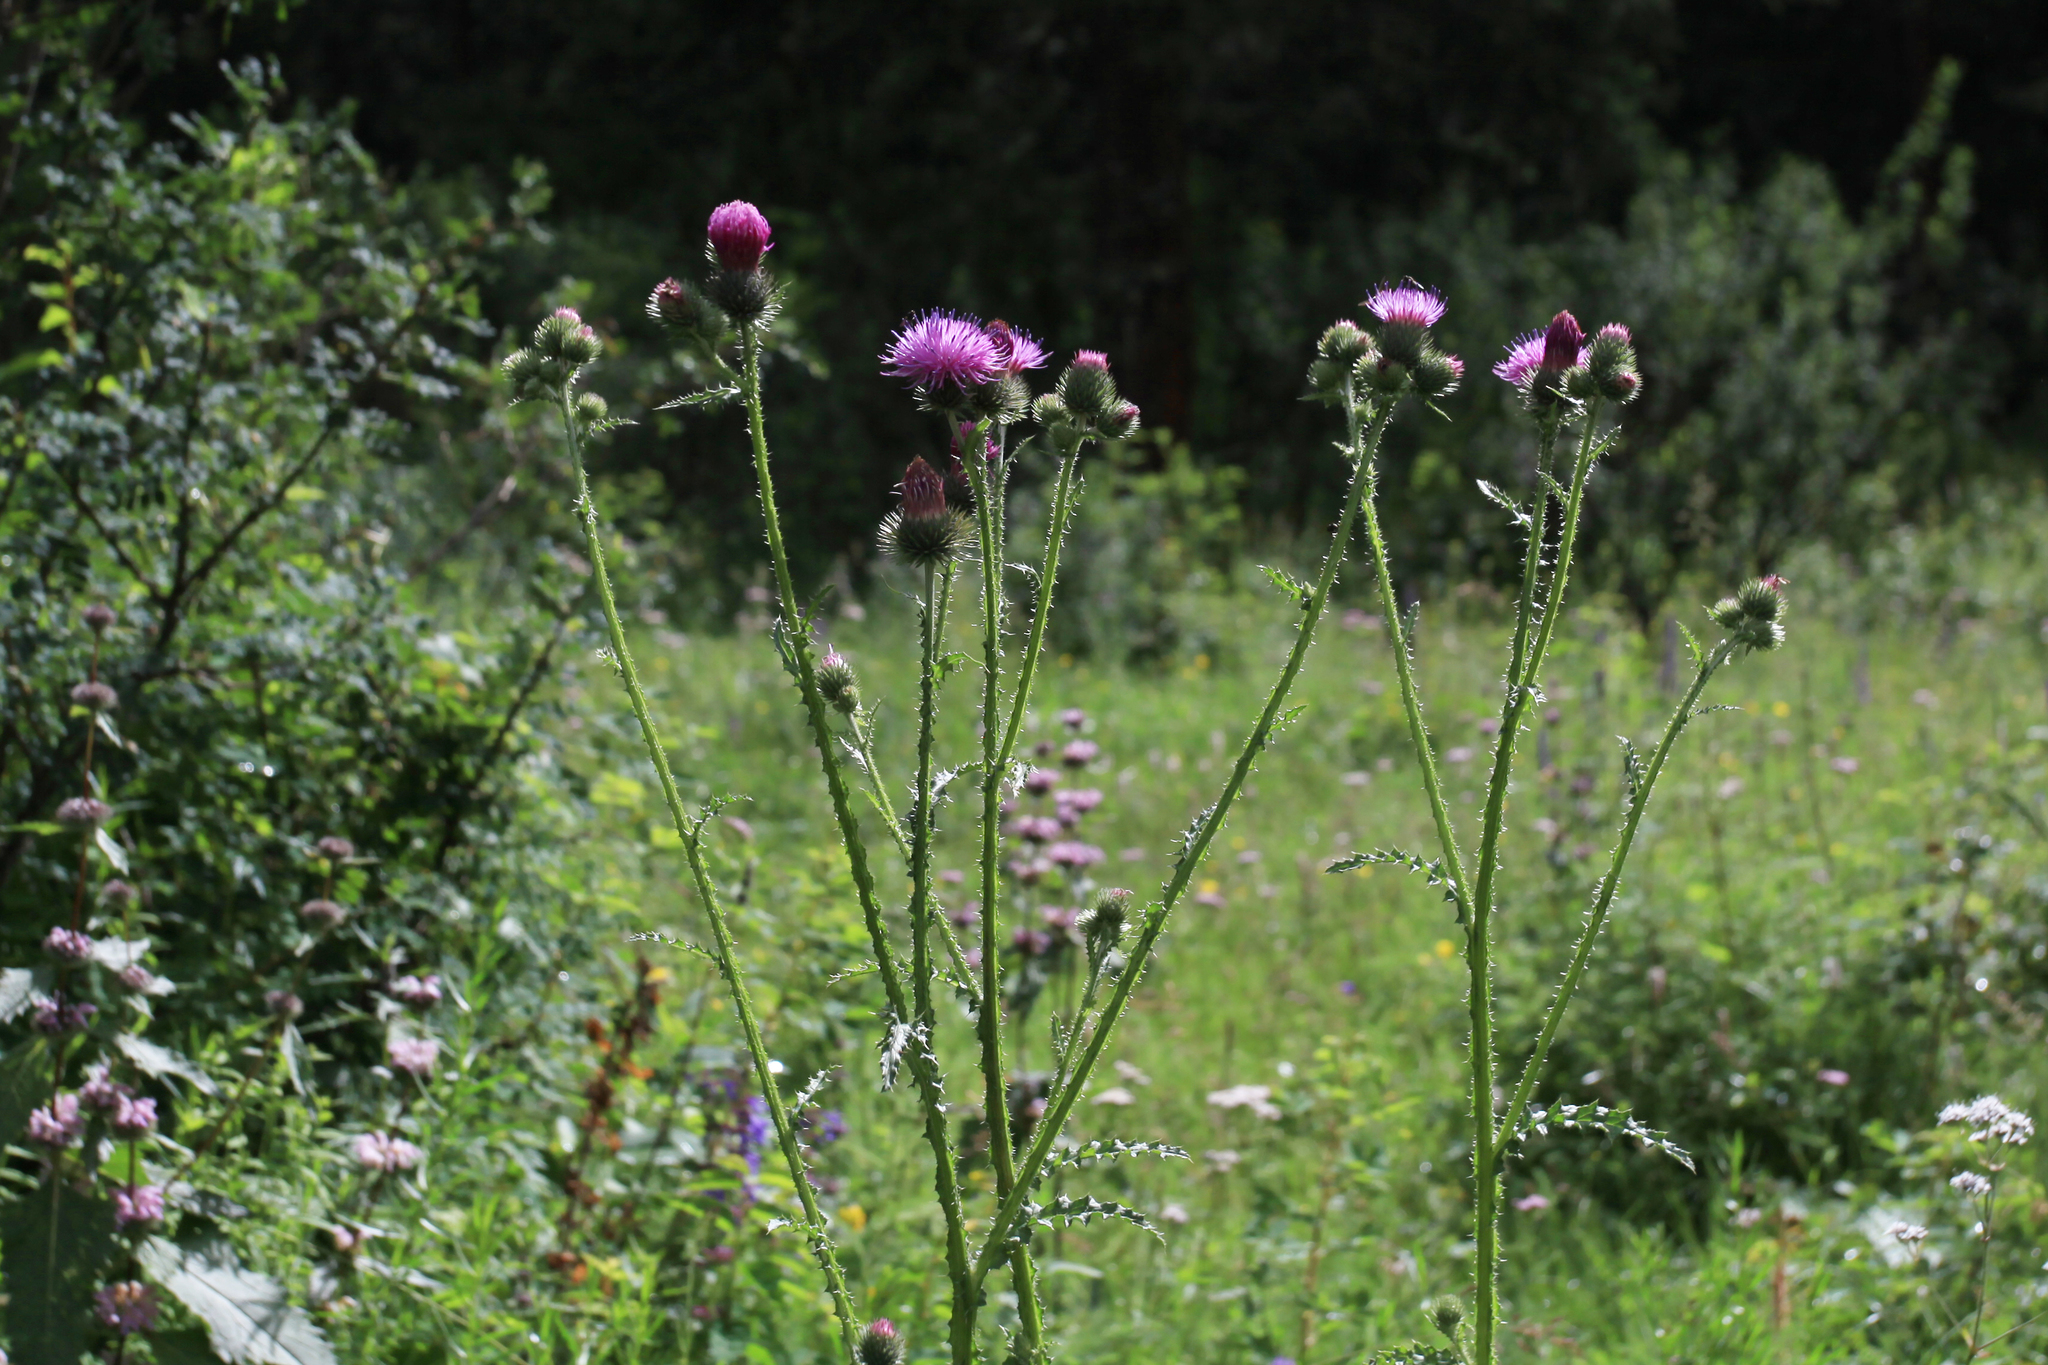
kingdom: Plantae
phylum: Tracheophyta
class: Magnoliopsida
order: Asterales
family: Asteraceae
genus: Carduus
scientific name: Carduus crispus
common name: Welted thistle
